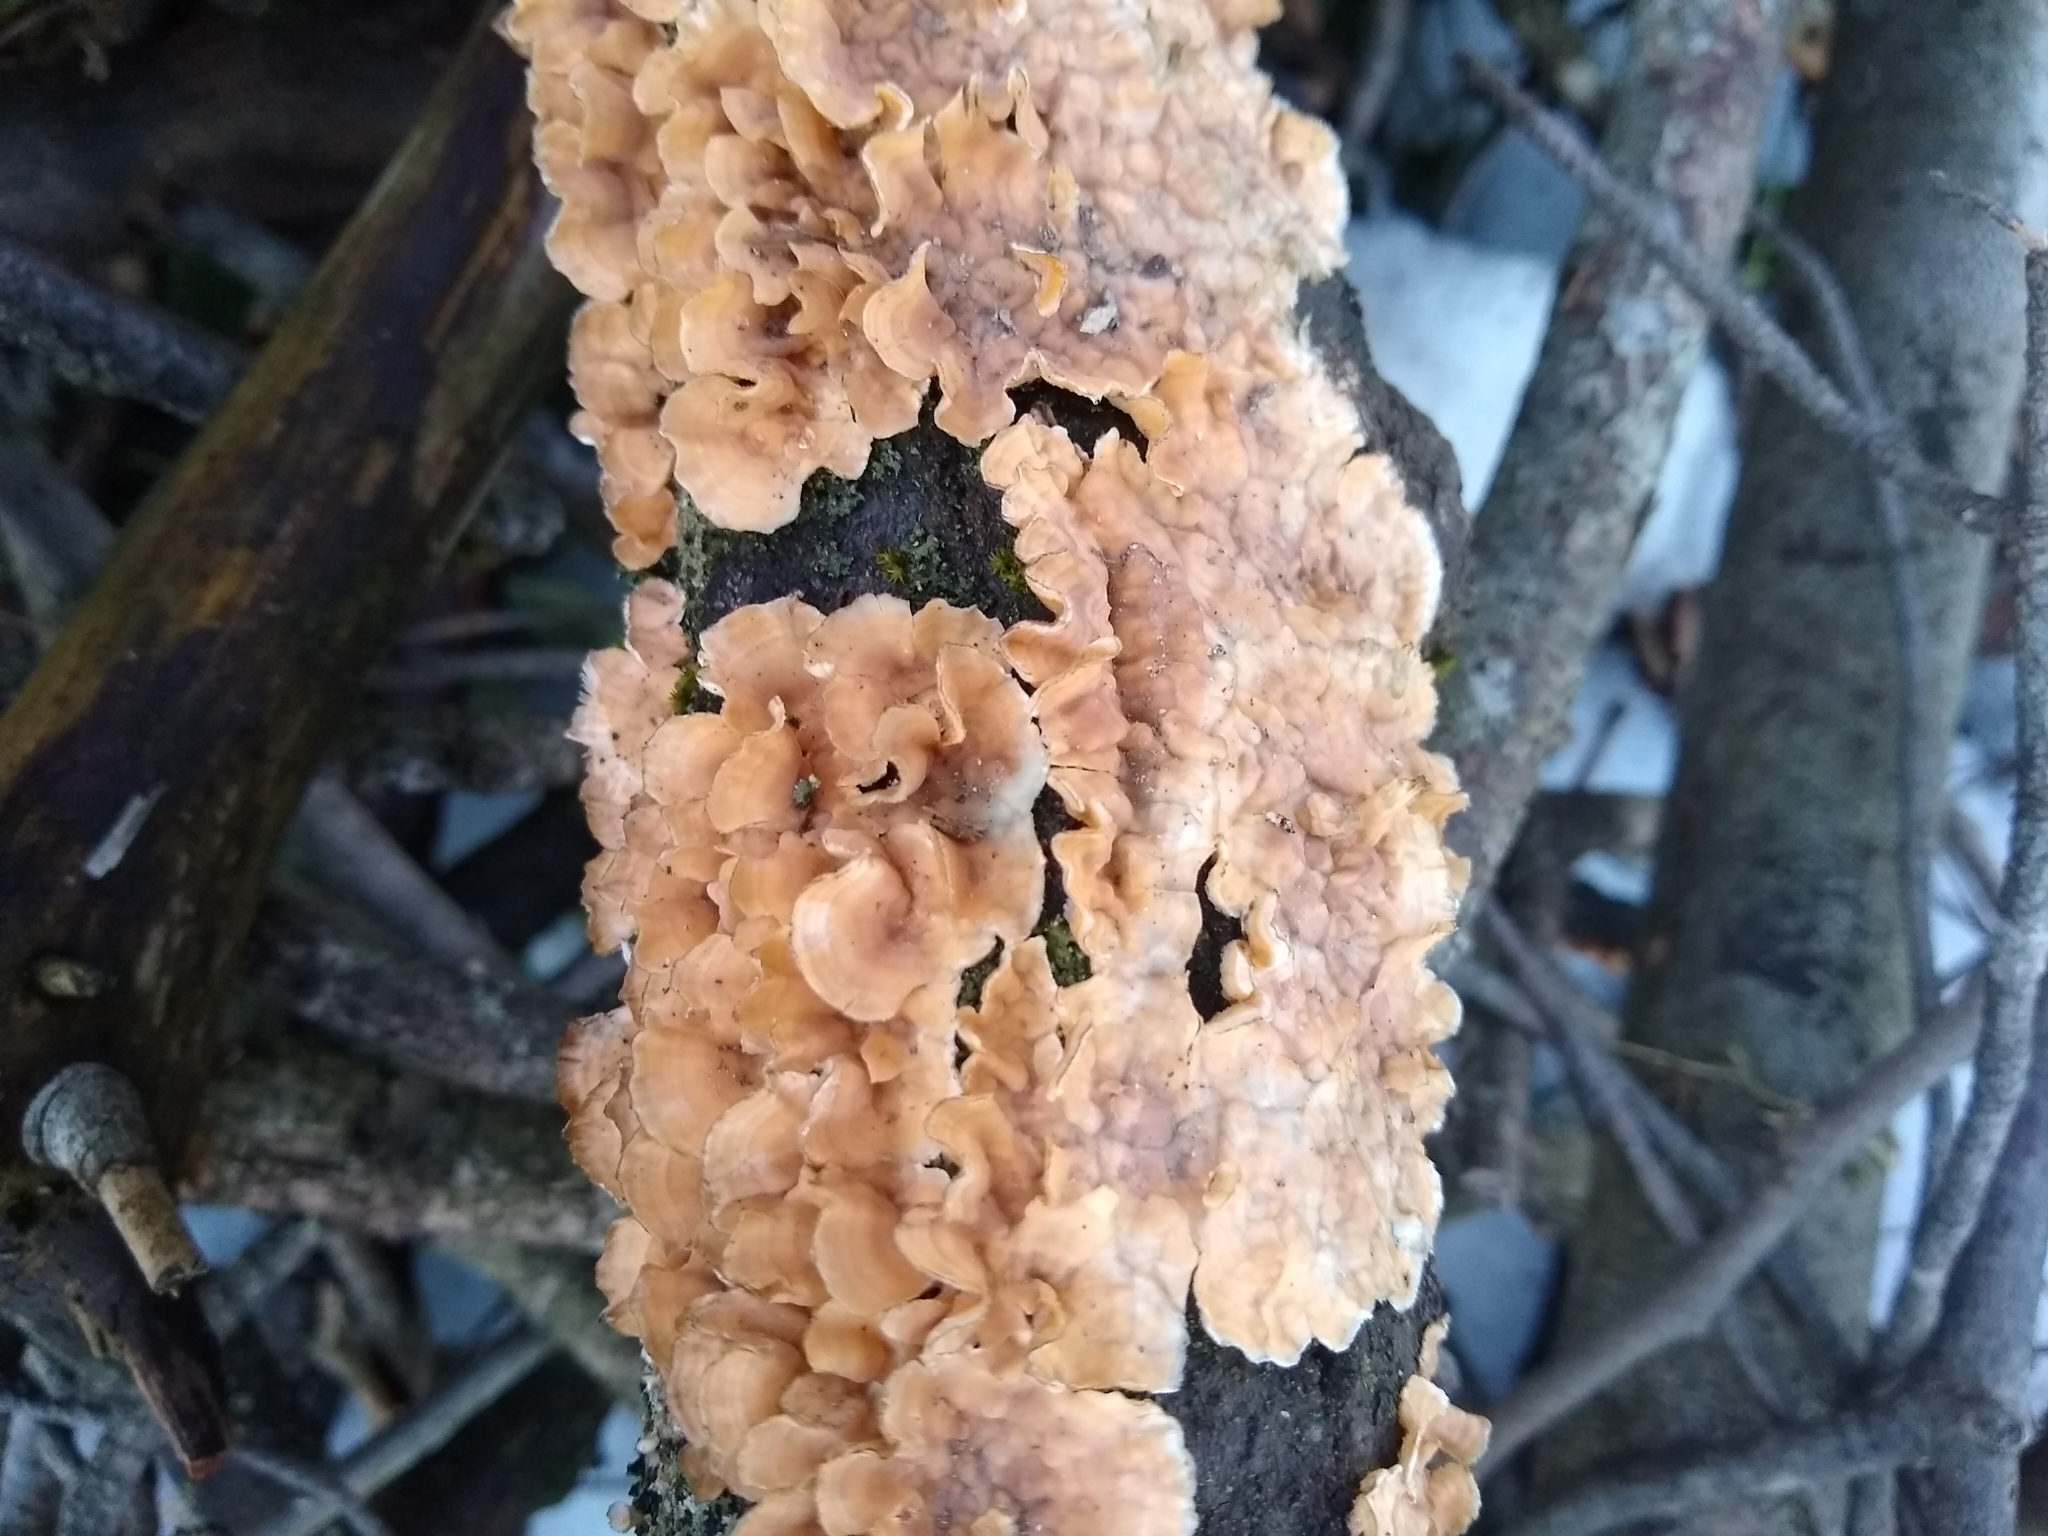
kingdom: Fungi
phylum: Basidiomycota
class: Agaricomycetes
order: Russulales
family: Stereaceae
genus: Stereum
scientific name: Stereum complicatum
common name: Crowded parchment
